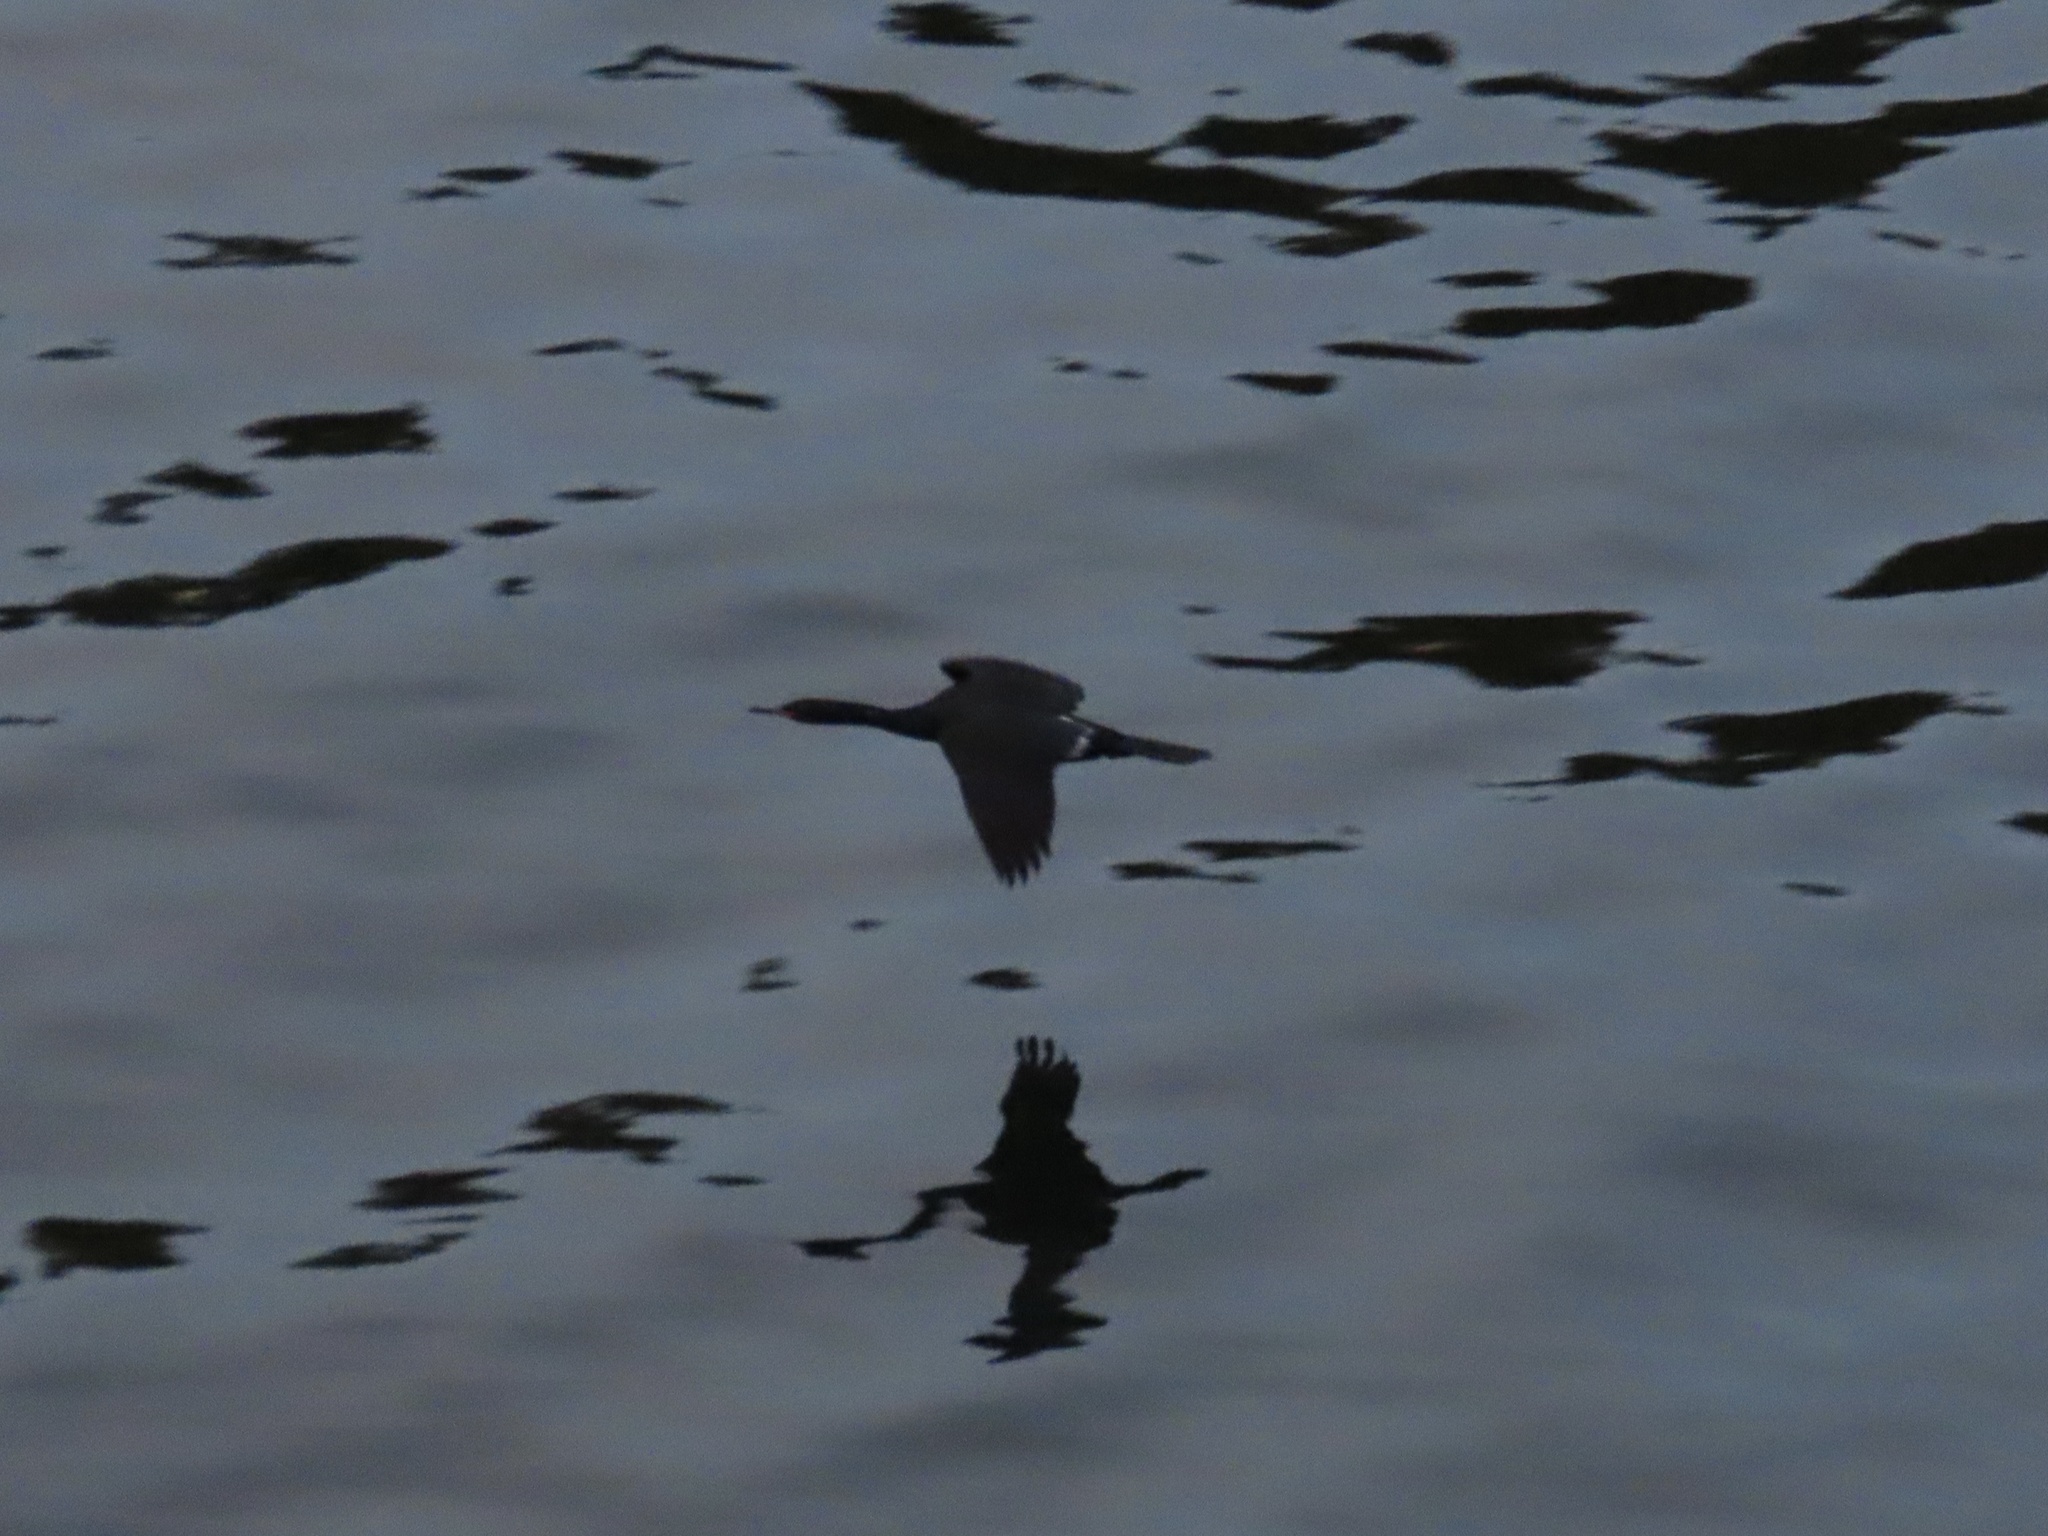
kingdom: Animalia
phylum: Chordata
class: Aves
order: Suliformes
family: Phalacrocoracidae
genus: Phalacrocorax
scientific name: Phalacrocorax pelagicus
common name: Pelagic cormorant
